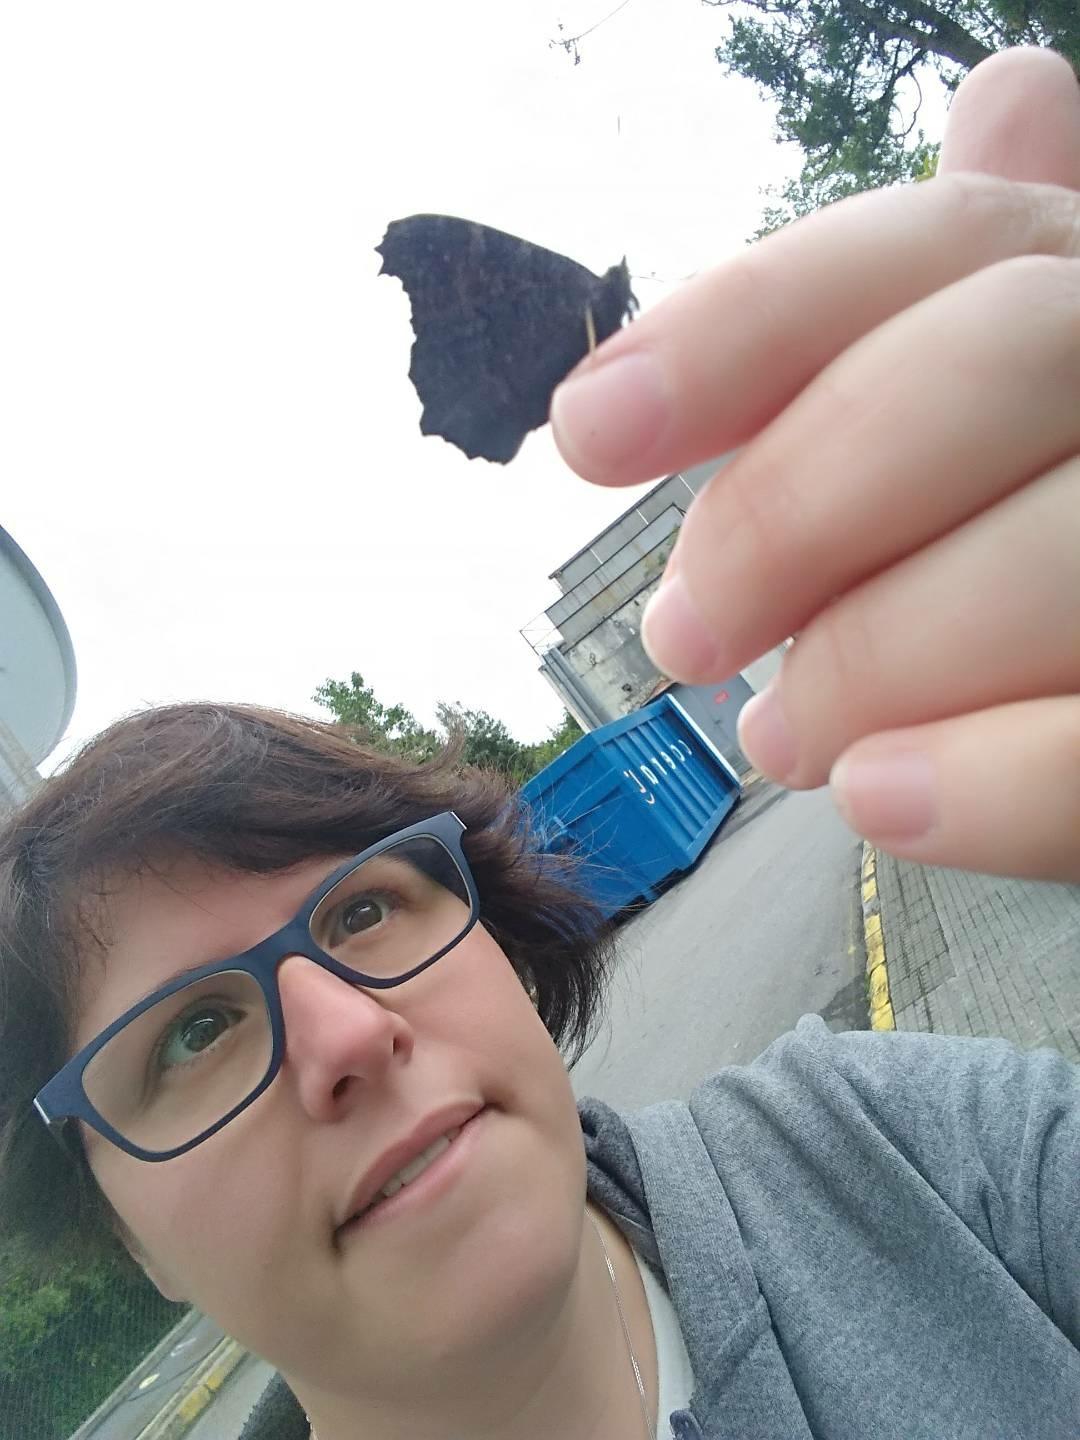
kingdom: Animalia
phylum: Arthropoda
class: Insecta
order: Lepidoptera
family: Nymphalidae
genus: Aglais
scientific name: Aglais io
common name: Peacock
